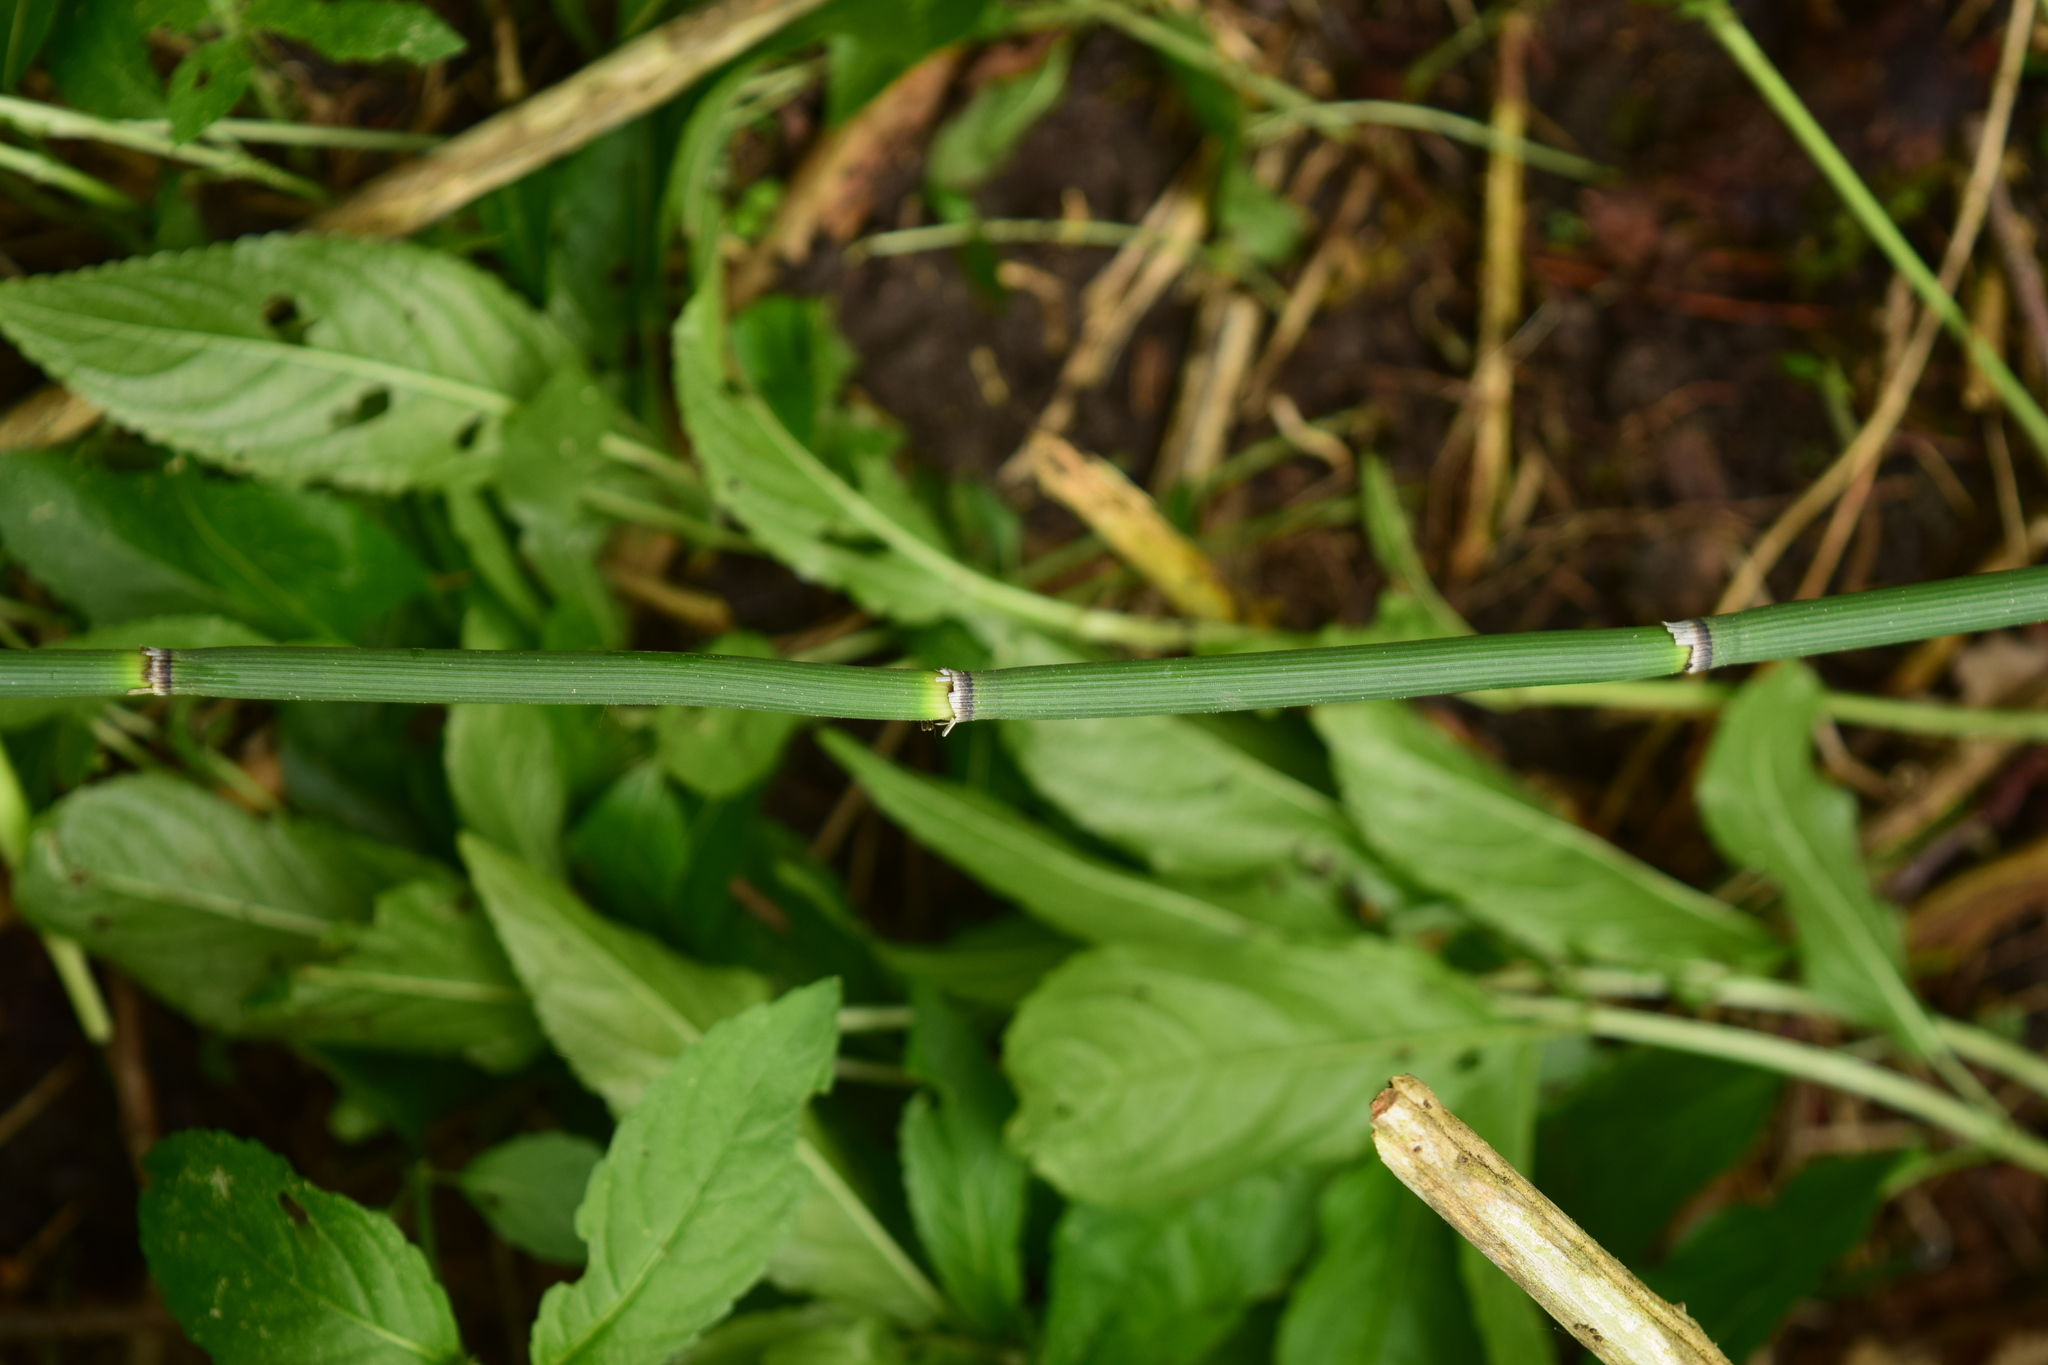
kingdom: Plantae
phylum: Tracheophyta
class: Polypodiopsida
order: Equisetales
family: Equisetaceae
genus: Equisetum
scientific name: Equisetum hyemale
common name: Rough horsetail
